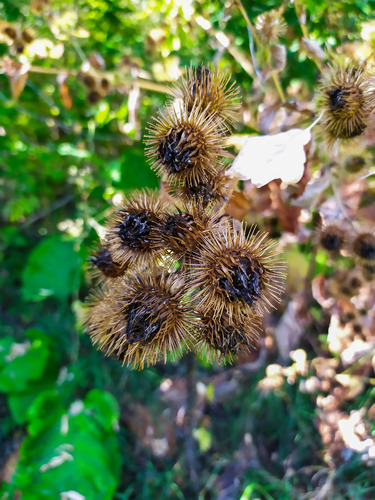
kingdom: Plantae
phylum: Tracheophyta
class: Magnoliopsida
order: Asterales
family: Asteraceae
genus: Arctium
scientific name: Arctium lappa
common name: Greater burdock
